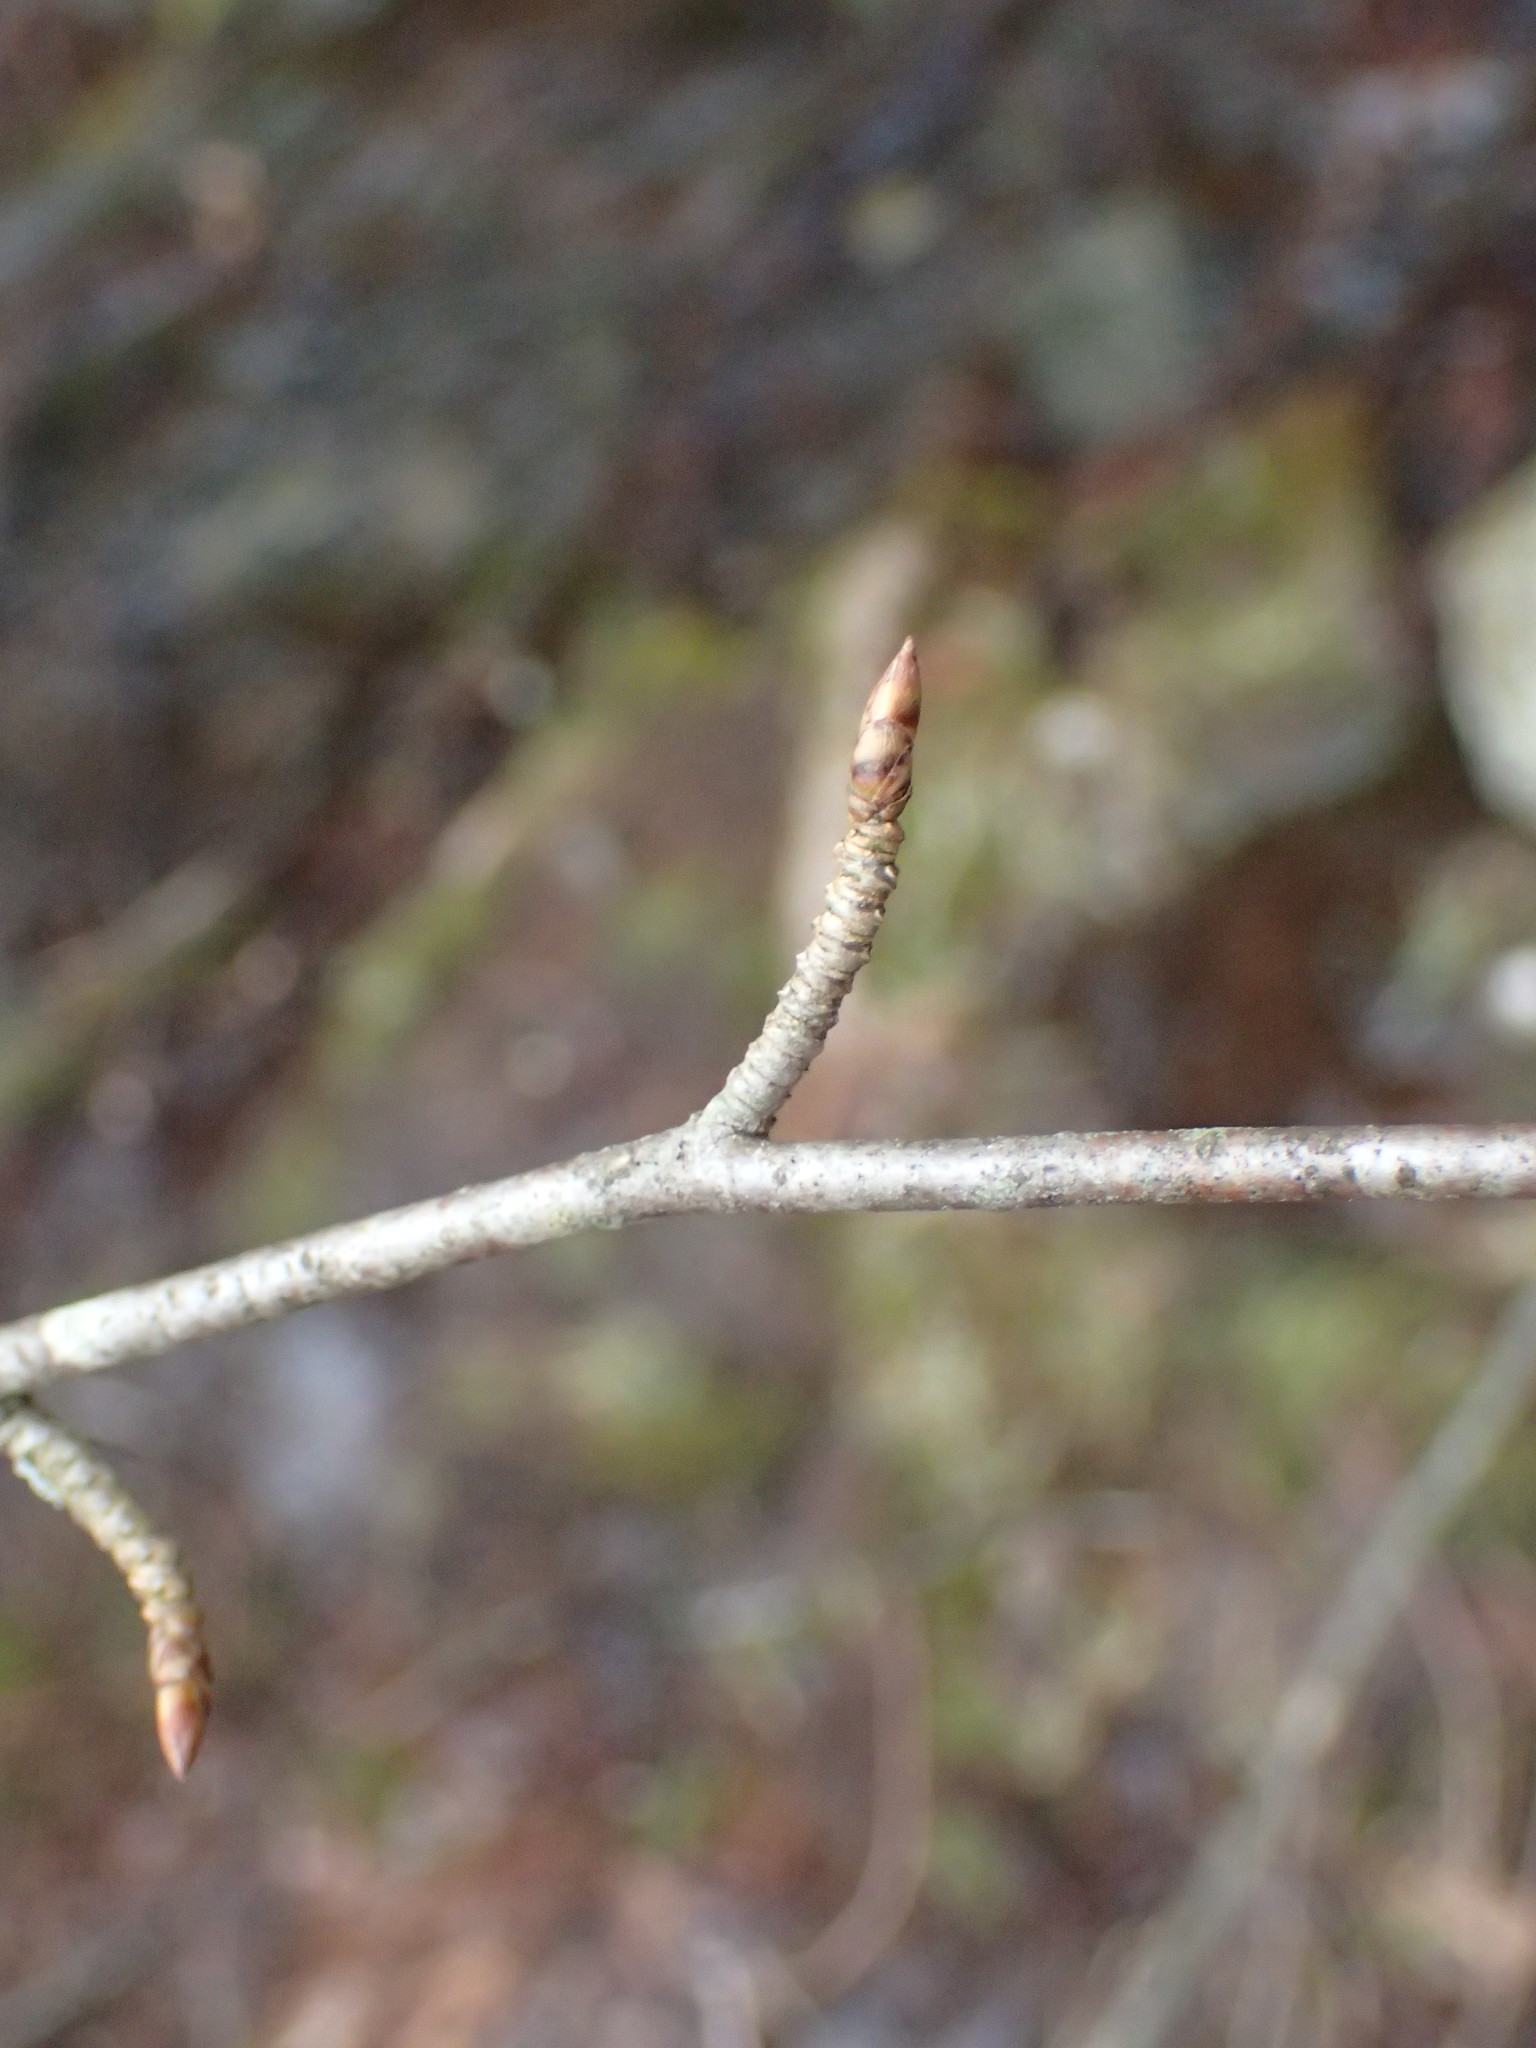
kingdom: Plantae
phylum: Tracheophyta
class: Magnoliopsida
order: Fagales
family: Betulaceae
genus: Betula
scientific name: Betula alleghaniensis
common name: Yellow birch
